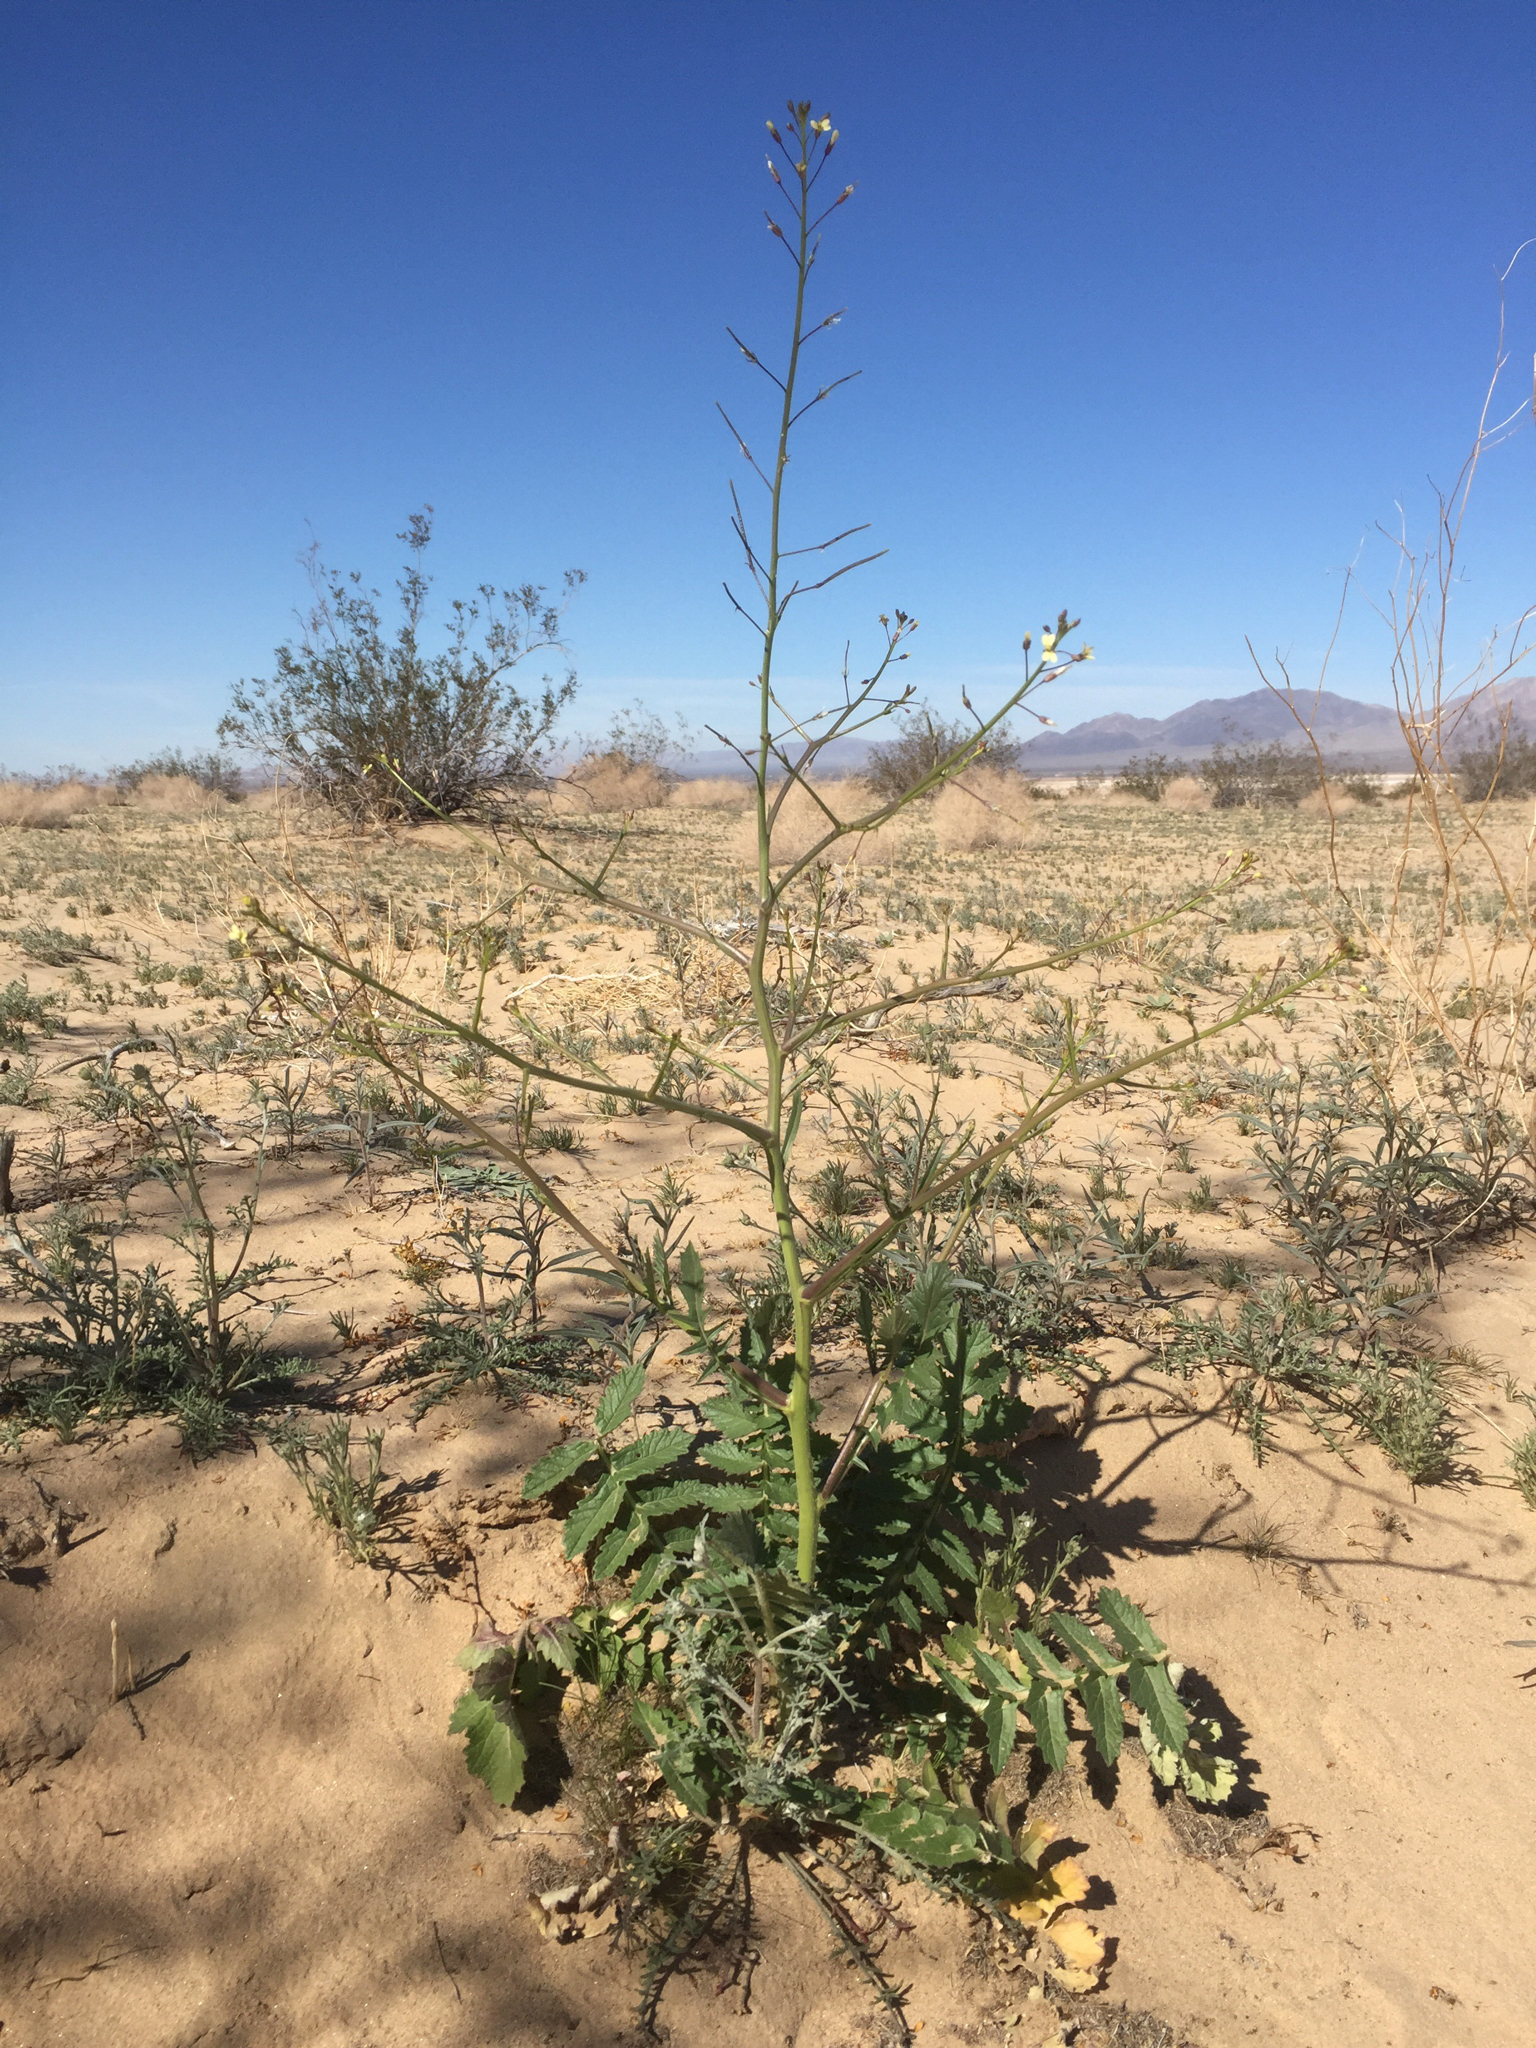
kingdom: Plantae
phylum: Tracheophyta
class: Magnoliopsida
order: Brassicales
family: Brassicaceae
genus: Brassica
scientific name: Brassica tournefortii
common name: Pale cabbage
